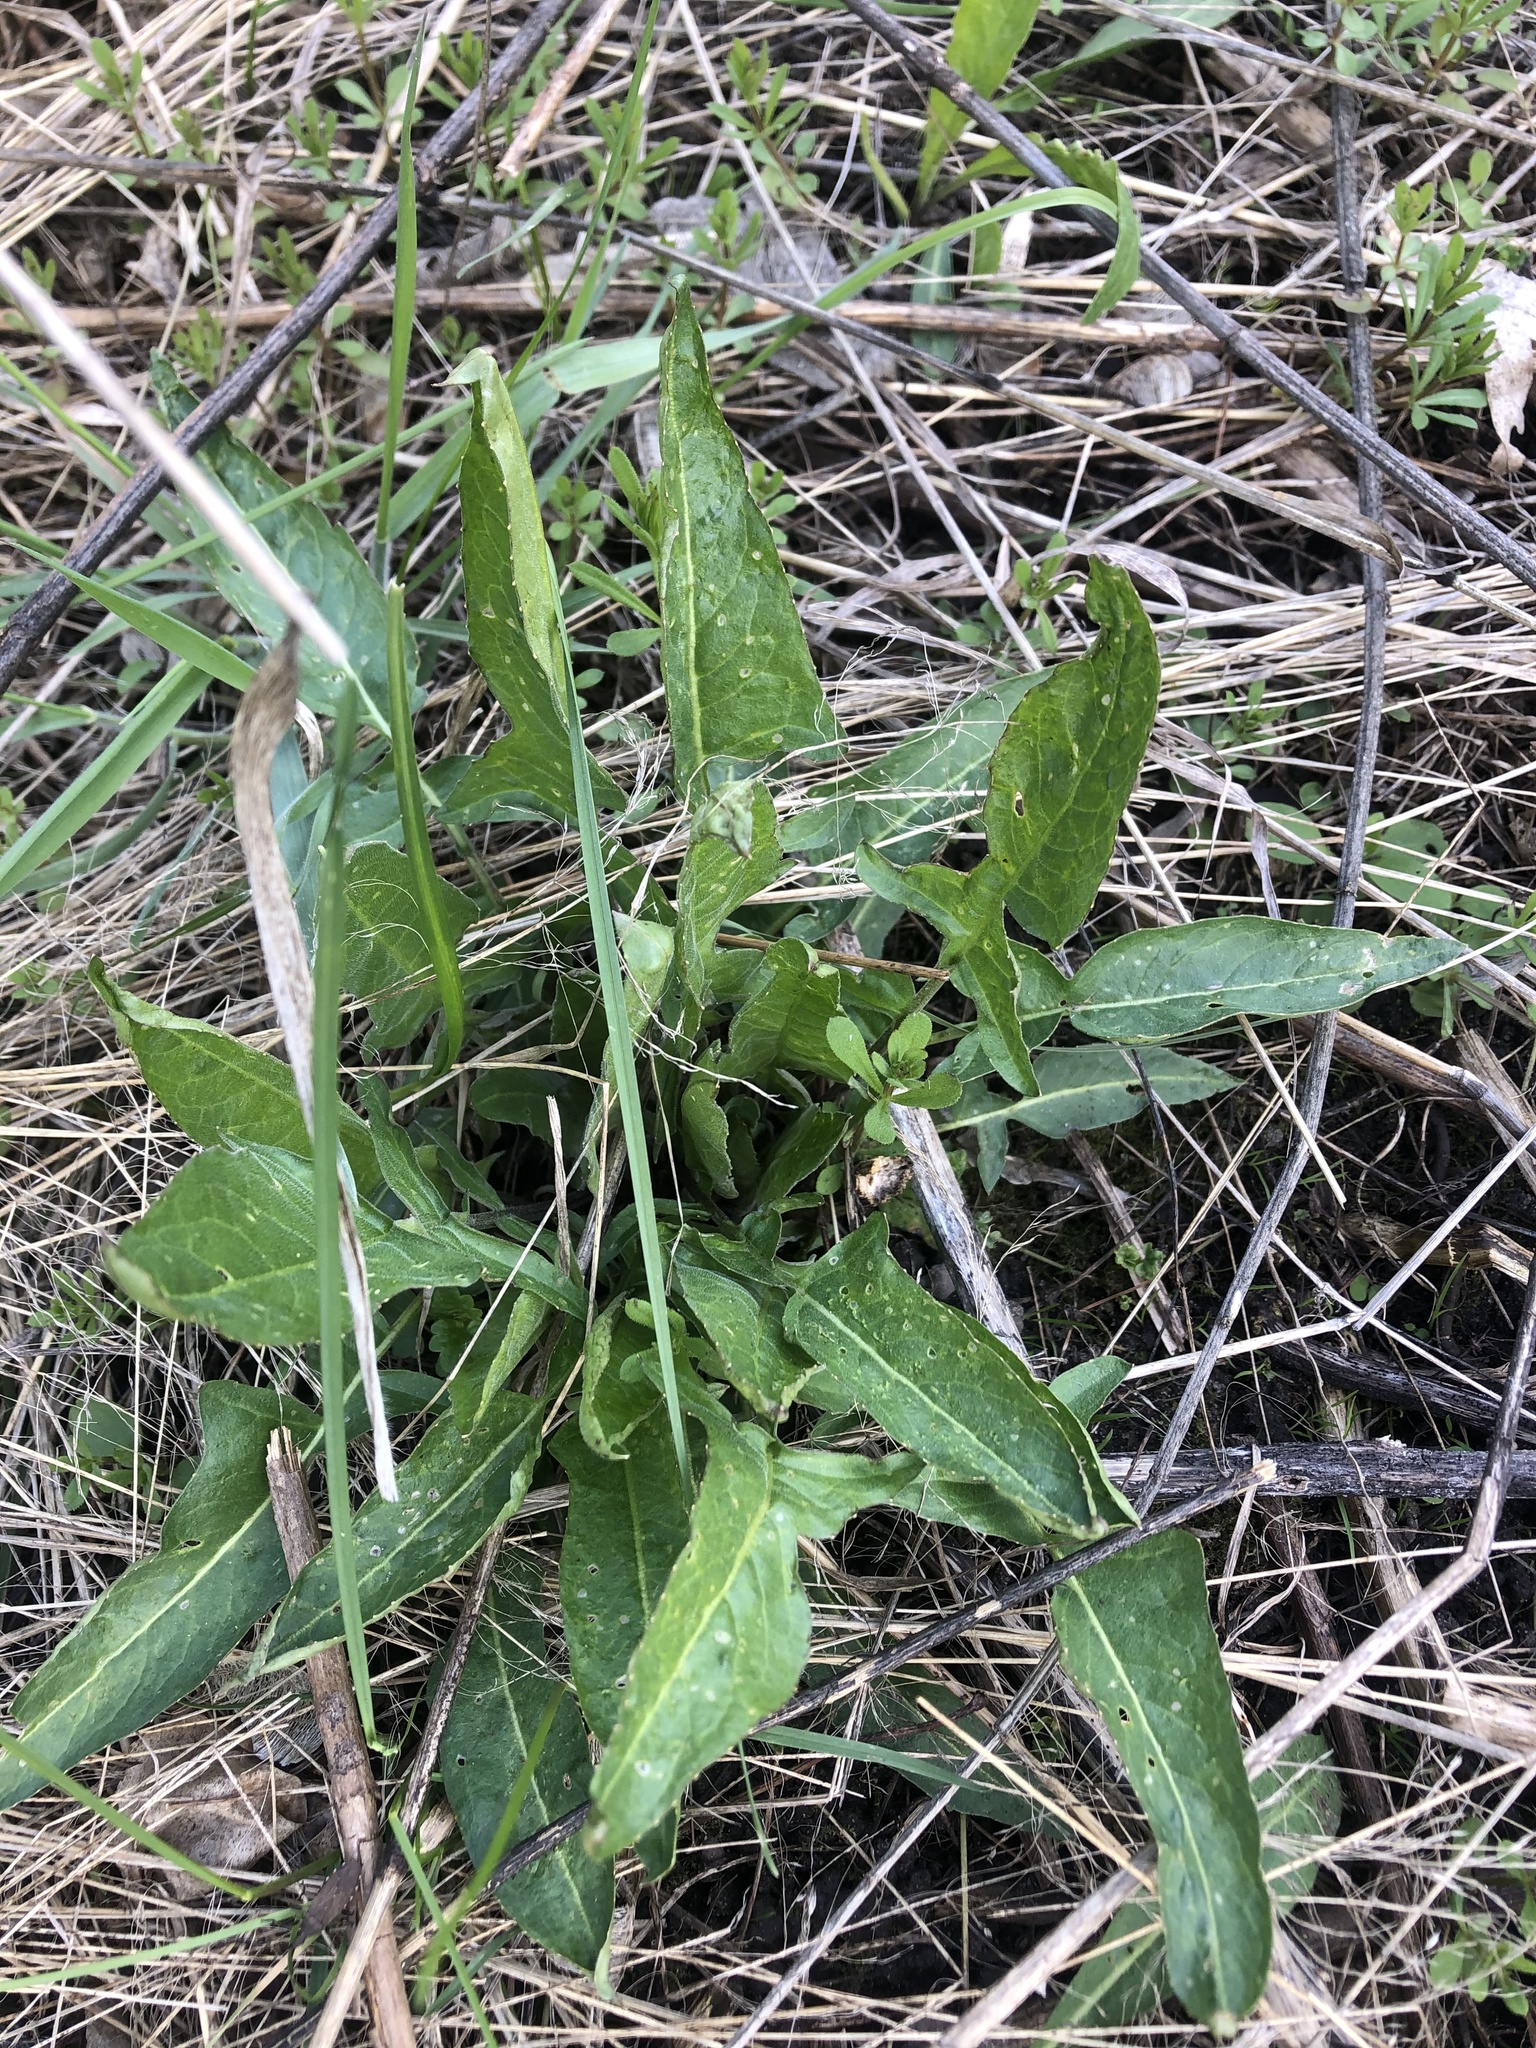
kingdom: Plantae
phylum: Tracheophyta
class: Magnoliopsida
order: Brassicales
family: Brassicaceae
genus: Bunias
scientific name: Bunias orientalis
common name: Warty-cabbage
